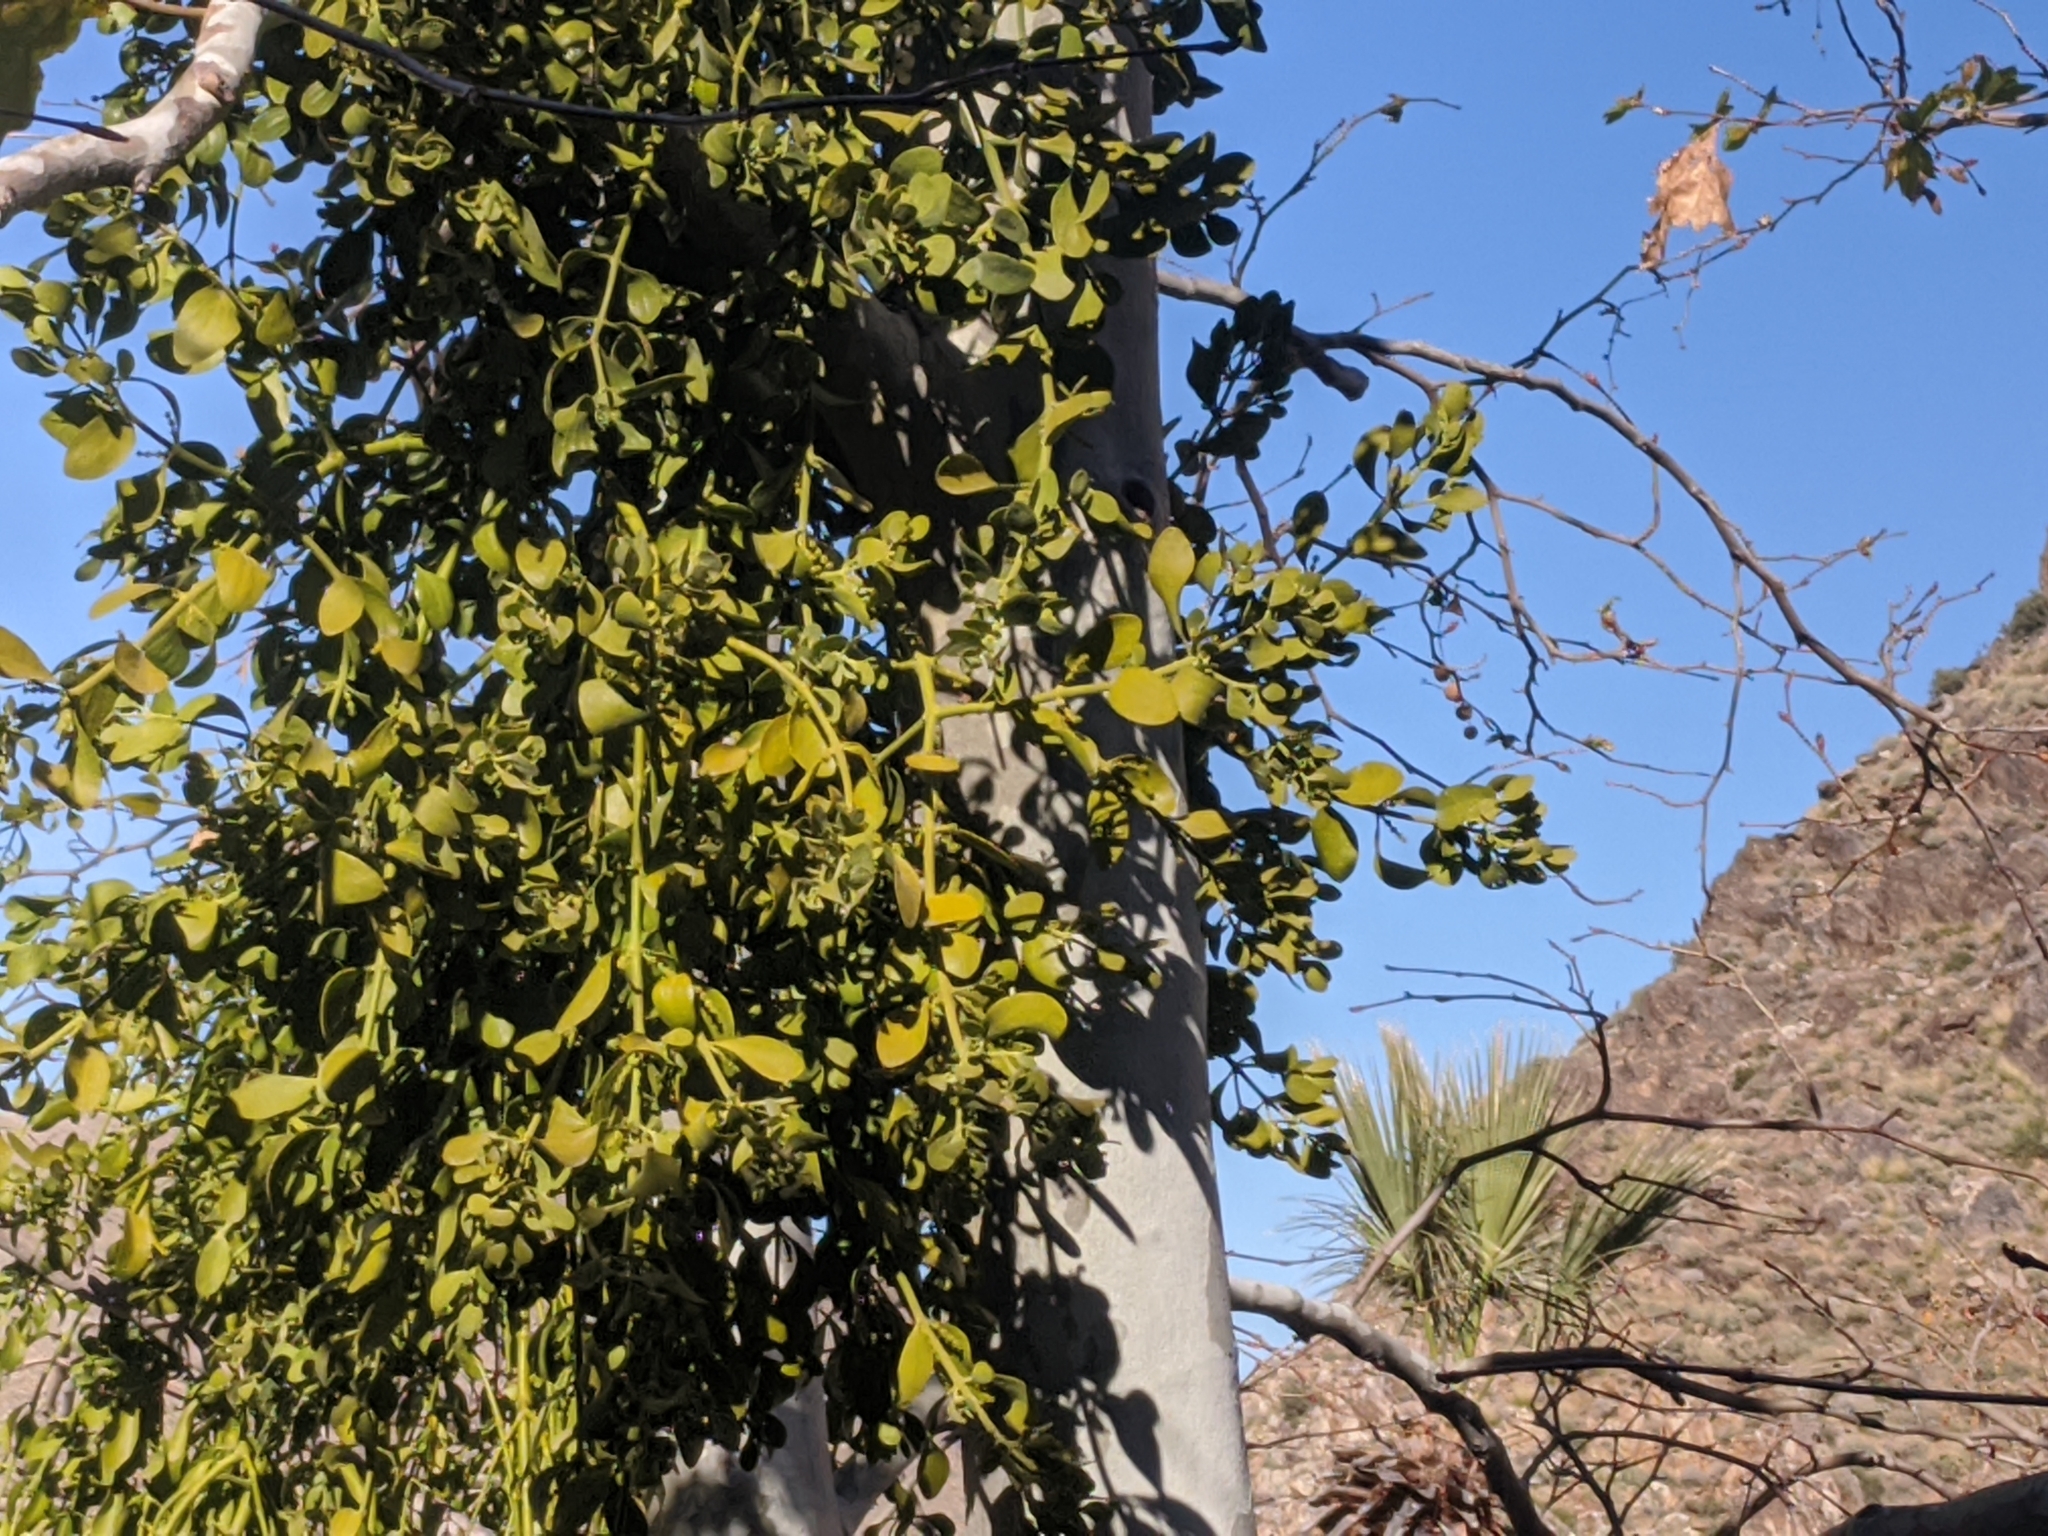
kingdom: Plantae
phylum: Tracheophyta
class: Magnoliopsida
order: Santalales
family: Viscaceae
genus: Phoradendron
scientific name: Phoradendron leucarpum
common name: Pacific mistletoe
